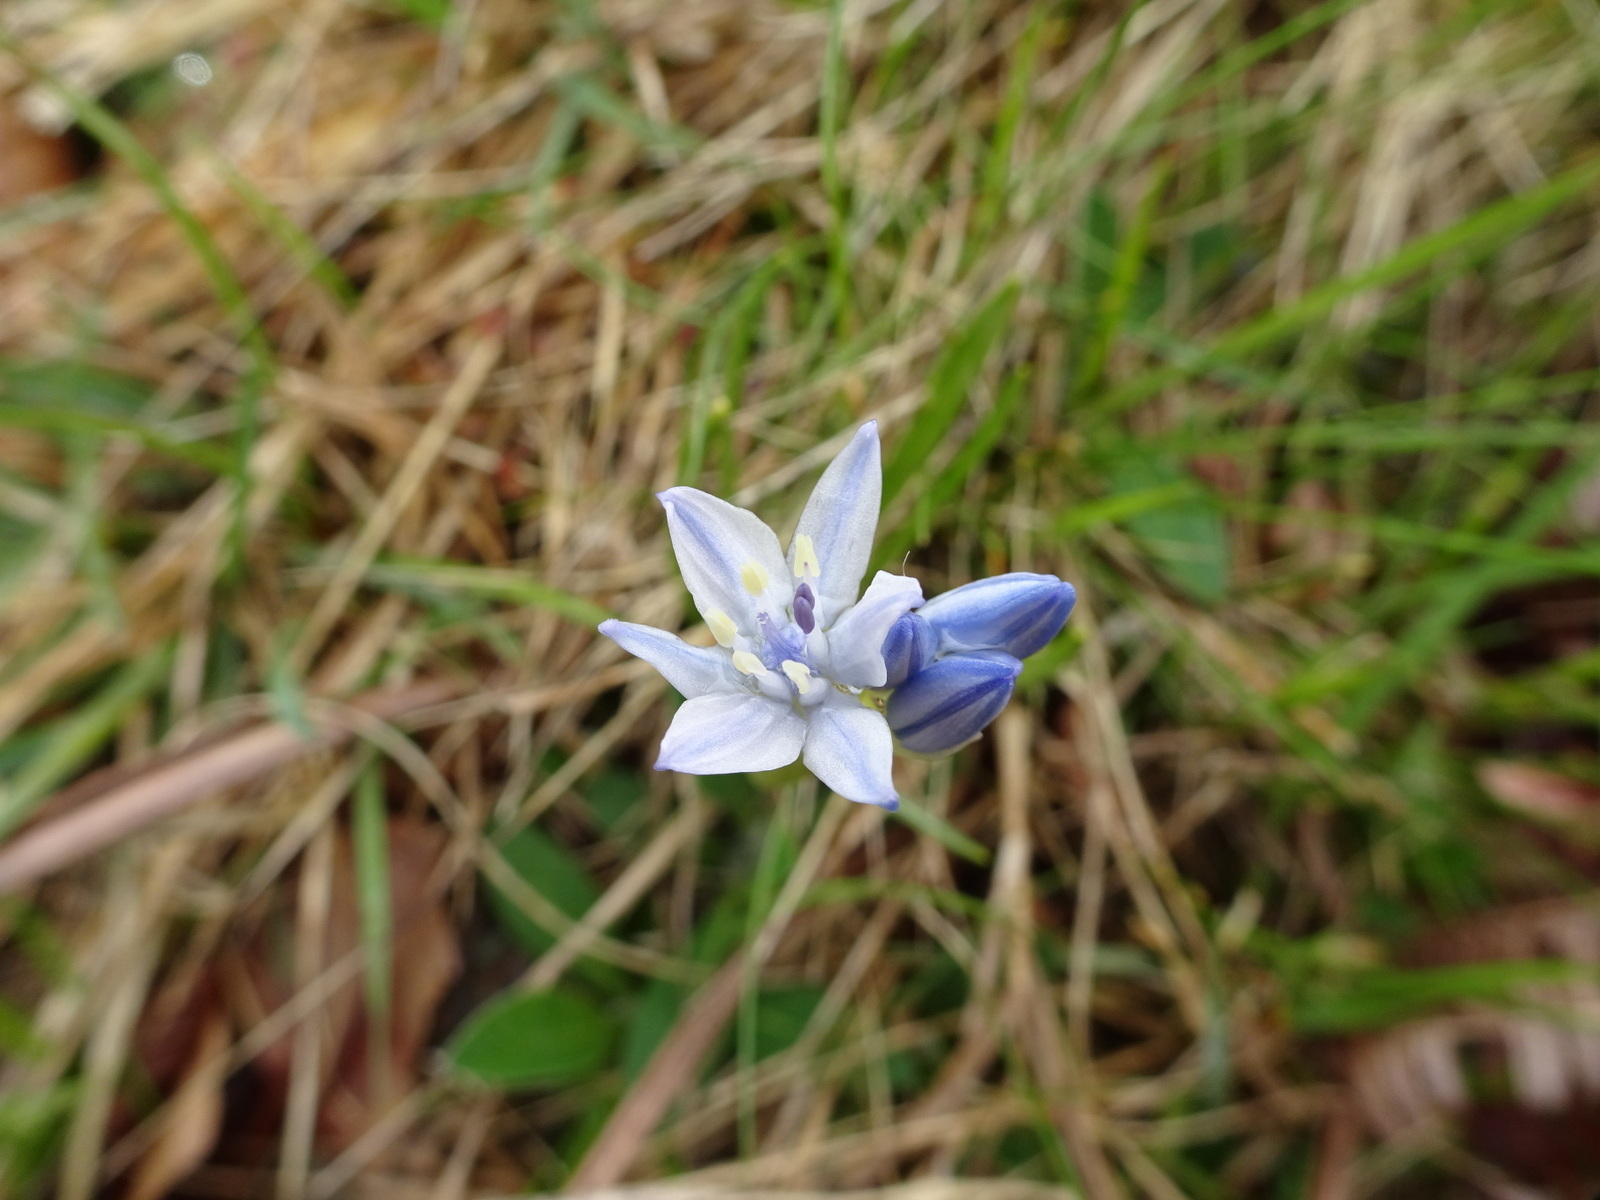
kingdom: Plantae
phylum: Tracheophyta
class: Liliopsida
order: Asparagales
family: Asparagaceae
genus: Scilla
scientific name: Scilla verna
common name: Spring squill
